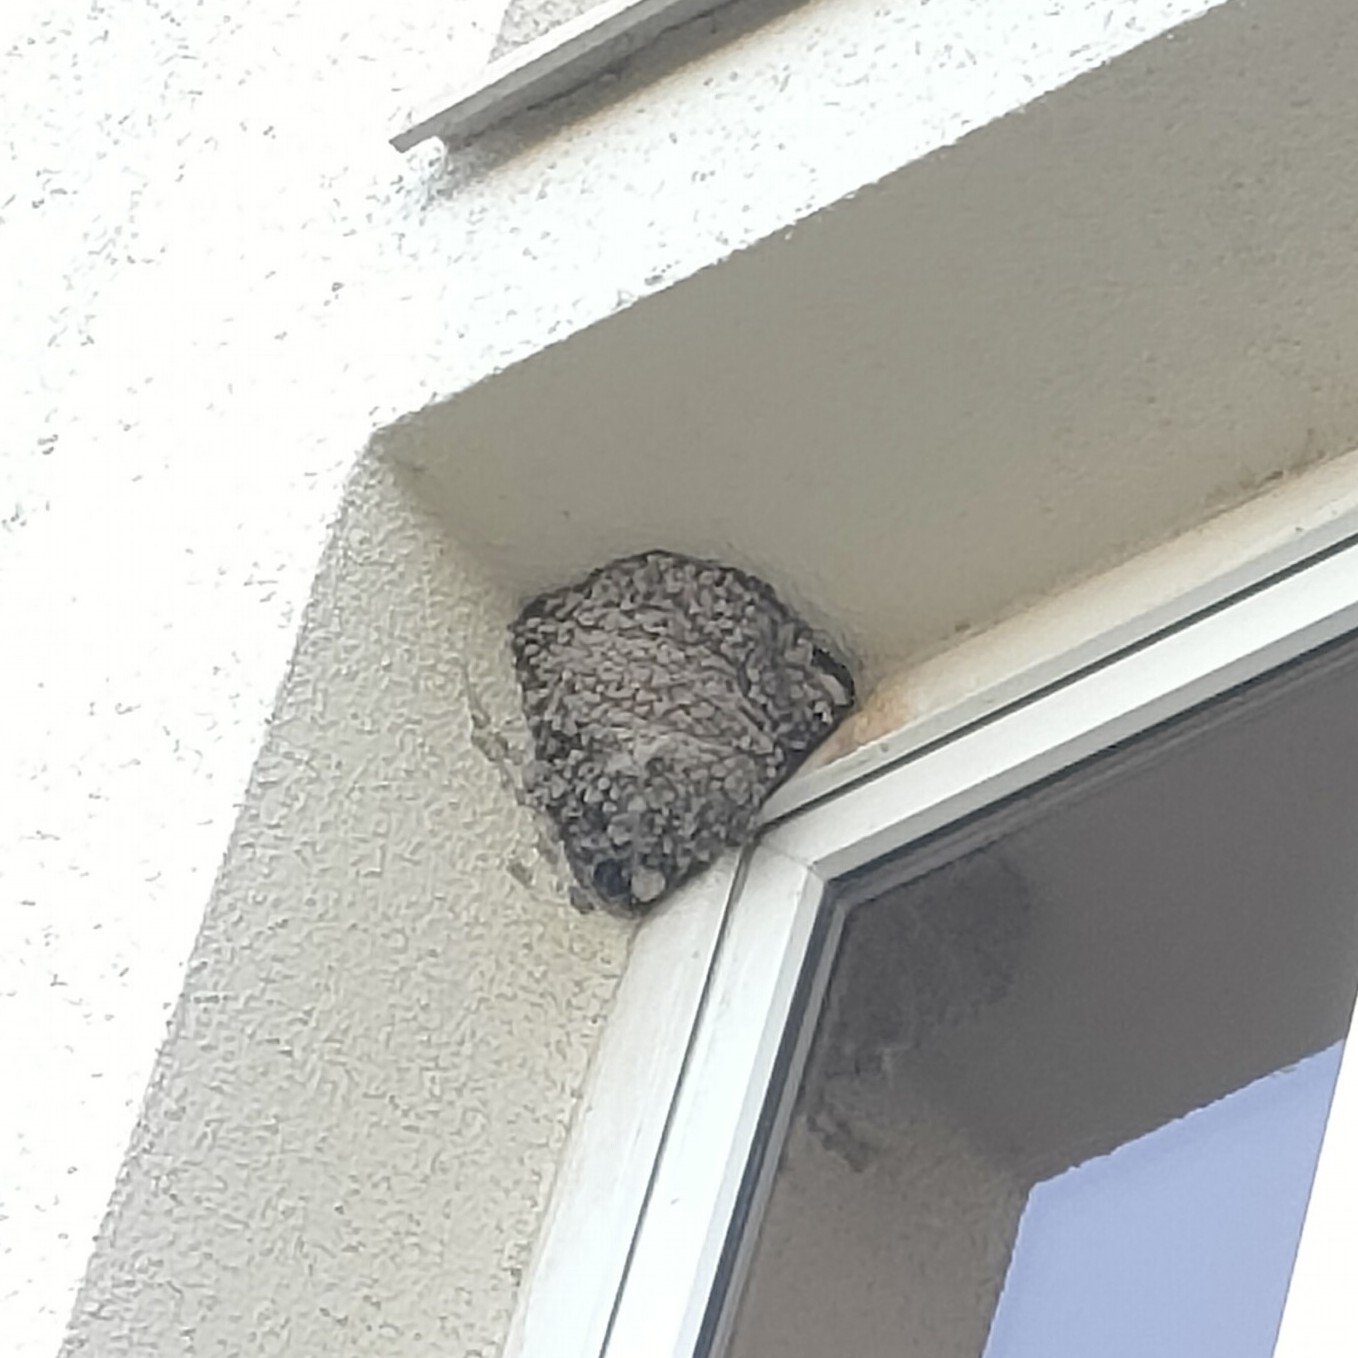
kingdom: Animalia
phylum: Chordata
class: Aves
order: Passeriformes
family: Hirundinidae
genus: Delichon
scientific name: Delichon urbicum
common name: Common house martin
